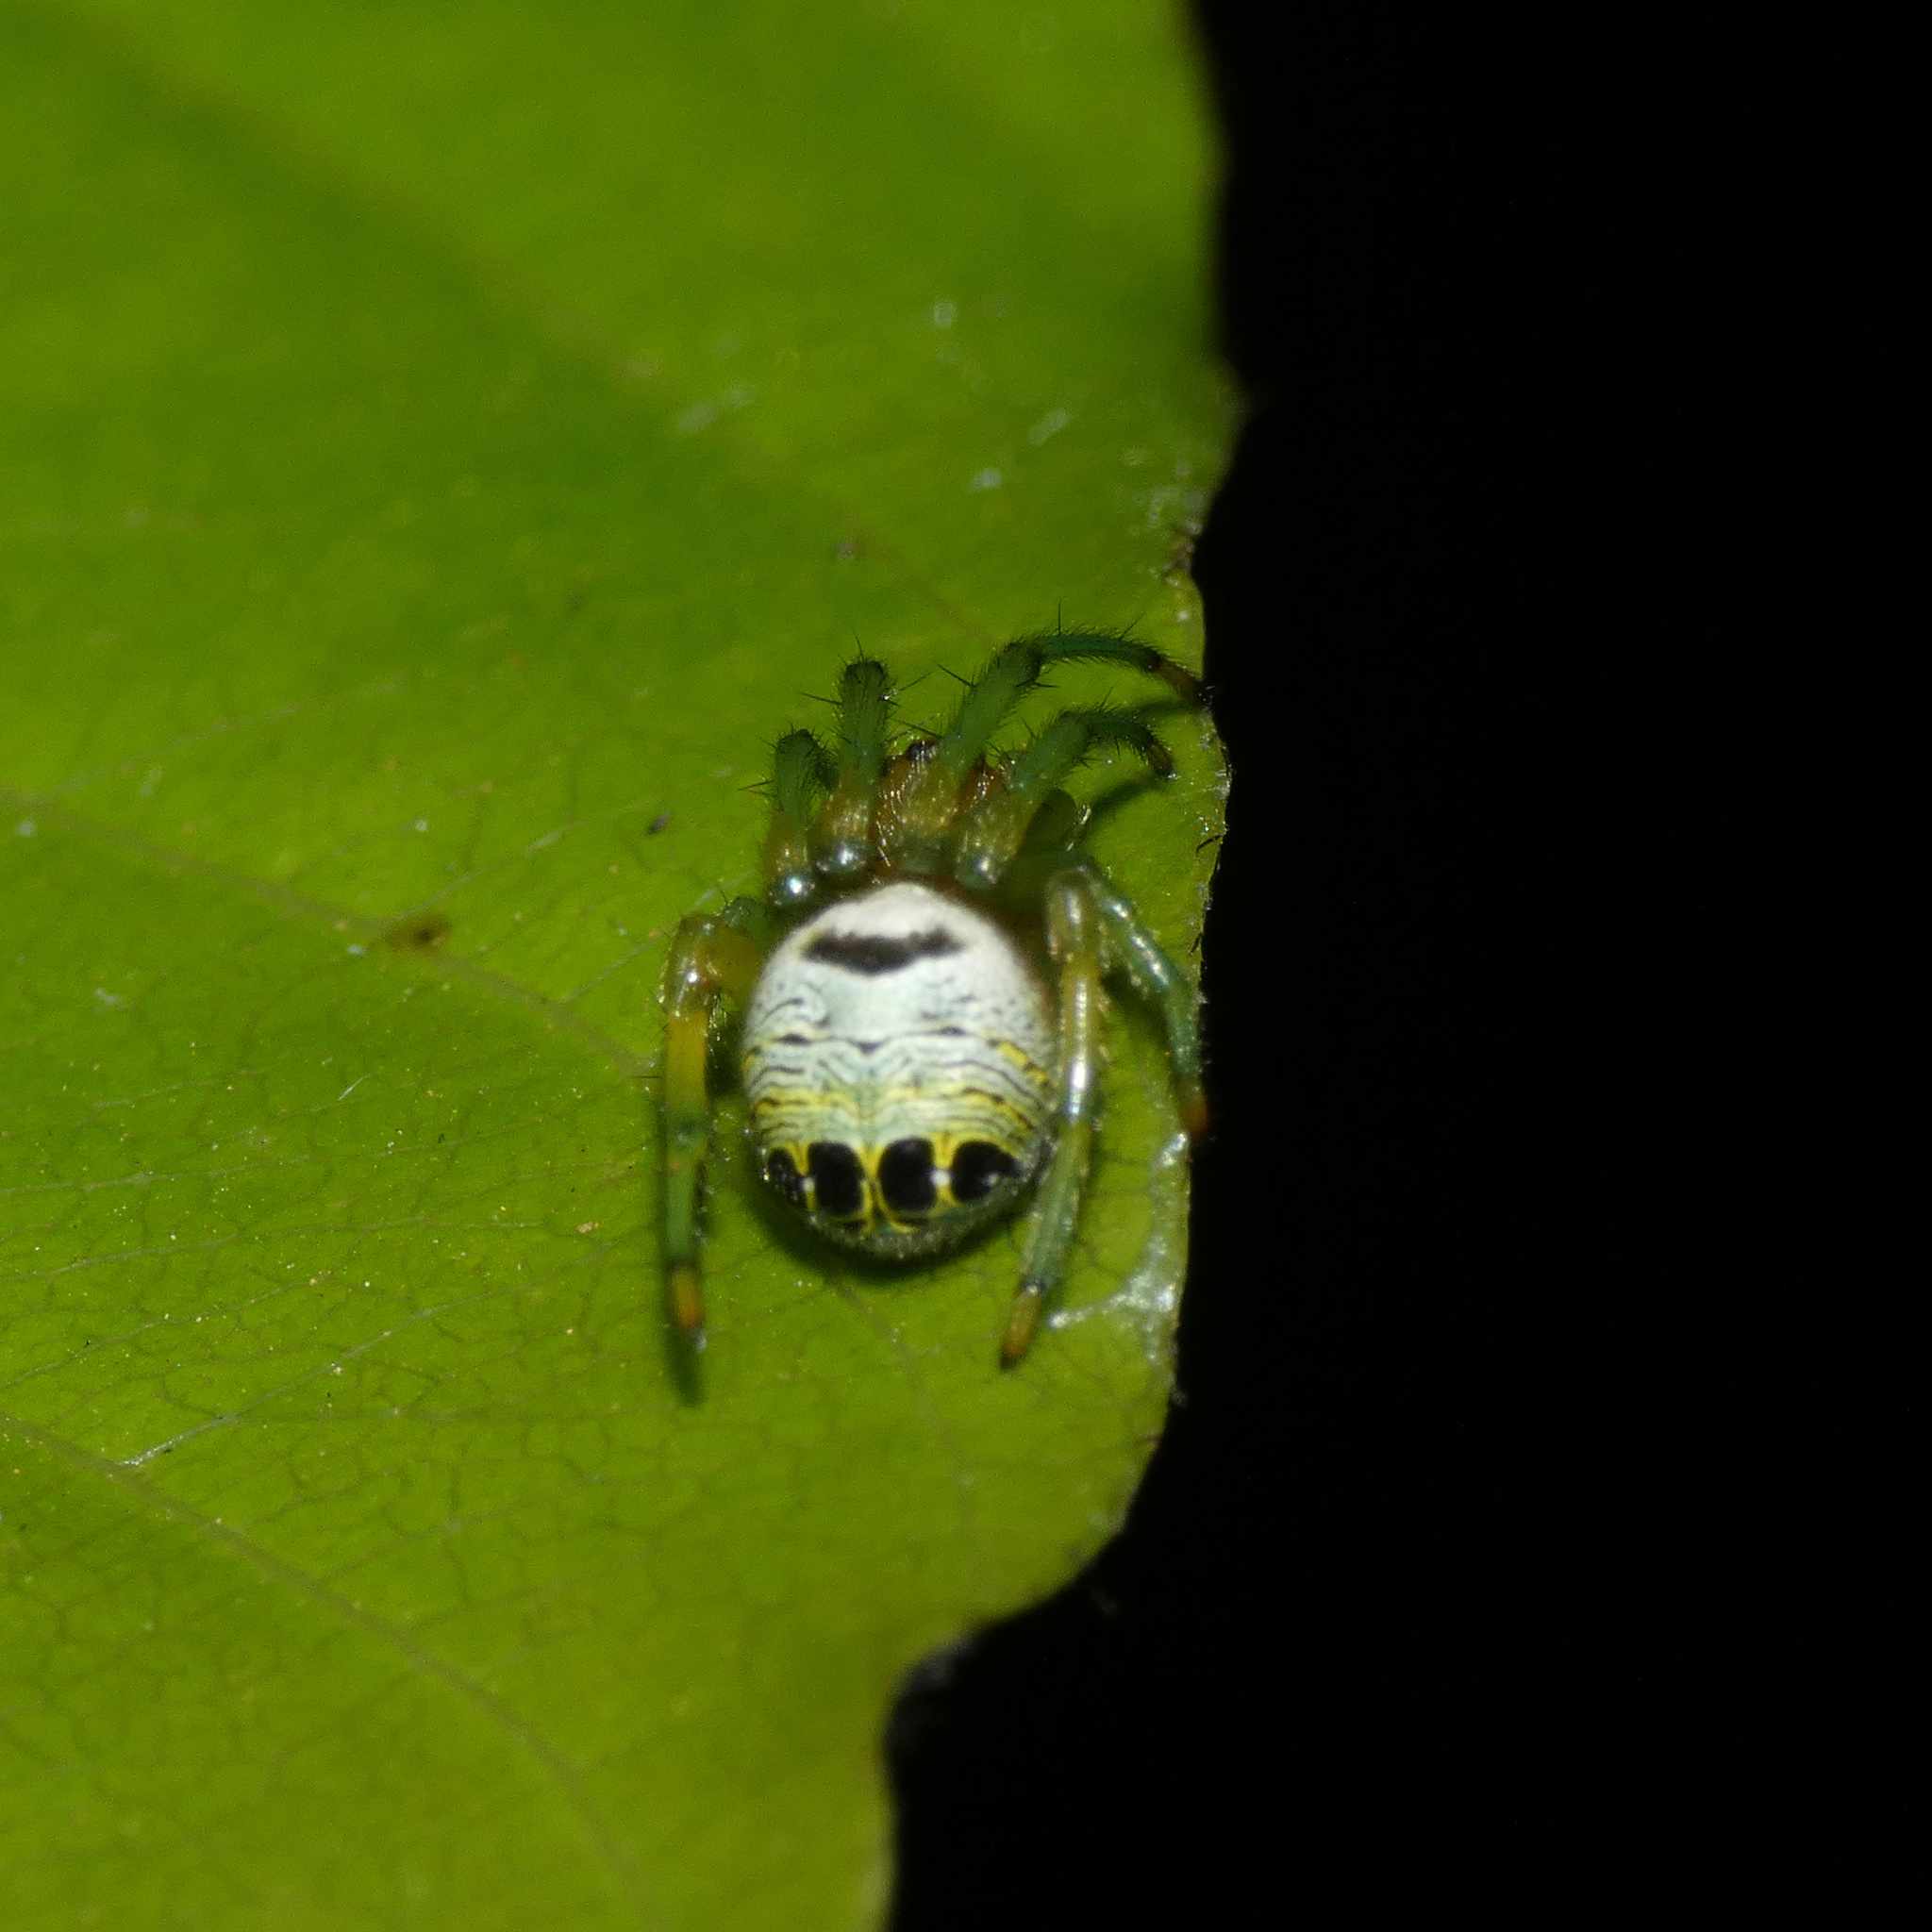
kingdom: Animalia
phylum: Arthropoda
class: Arachnida
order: Araneae
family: Araneidae
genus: Bijoaraneus
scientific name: Bijoaraneus legonensis
